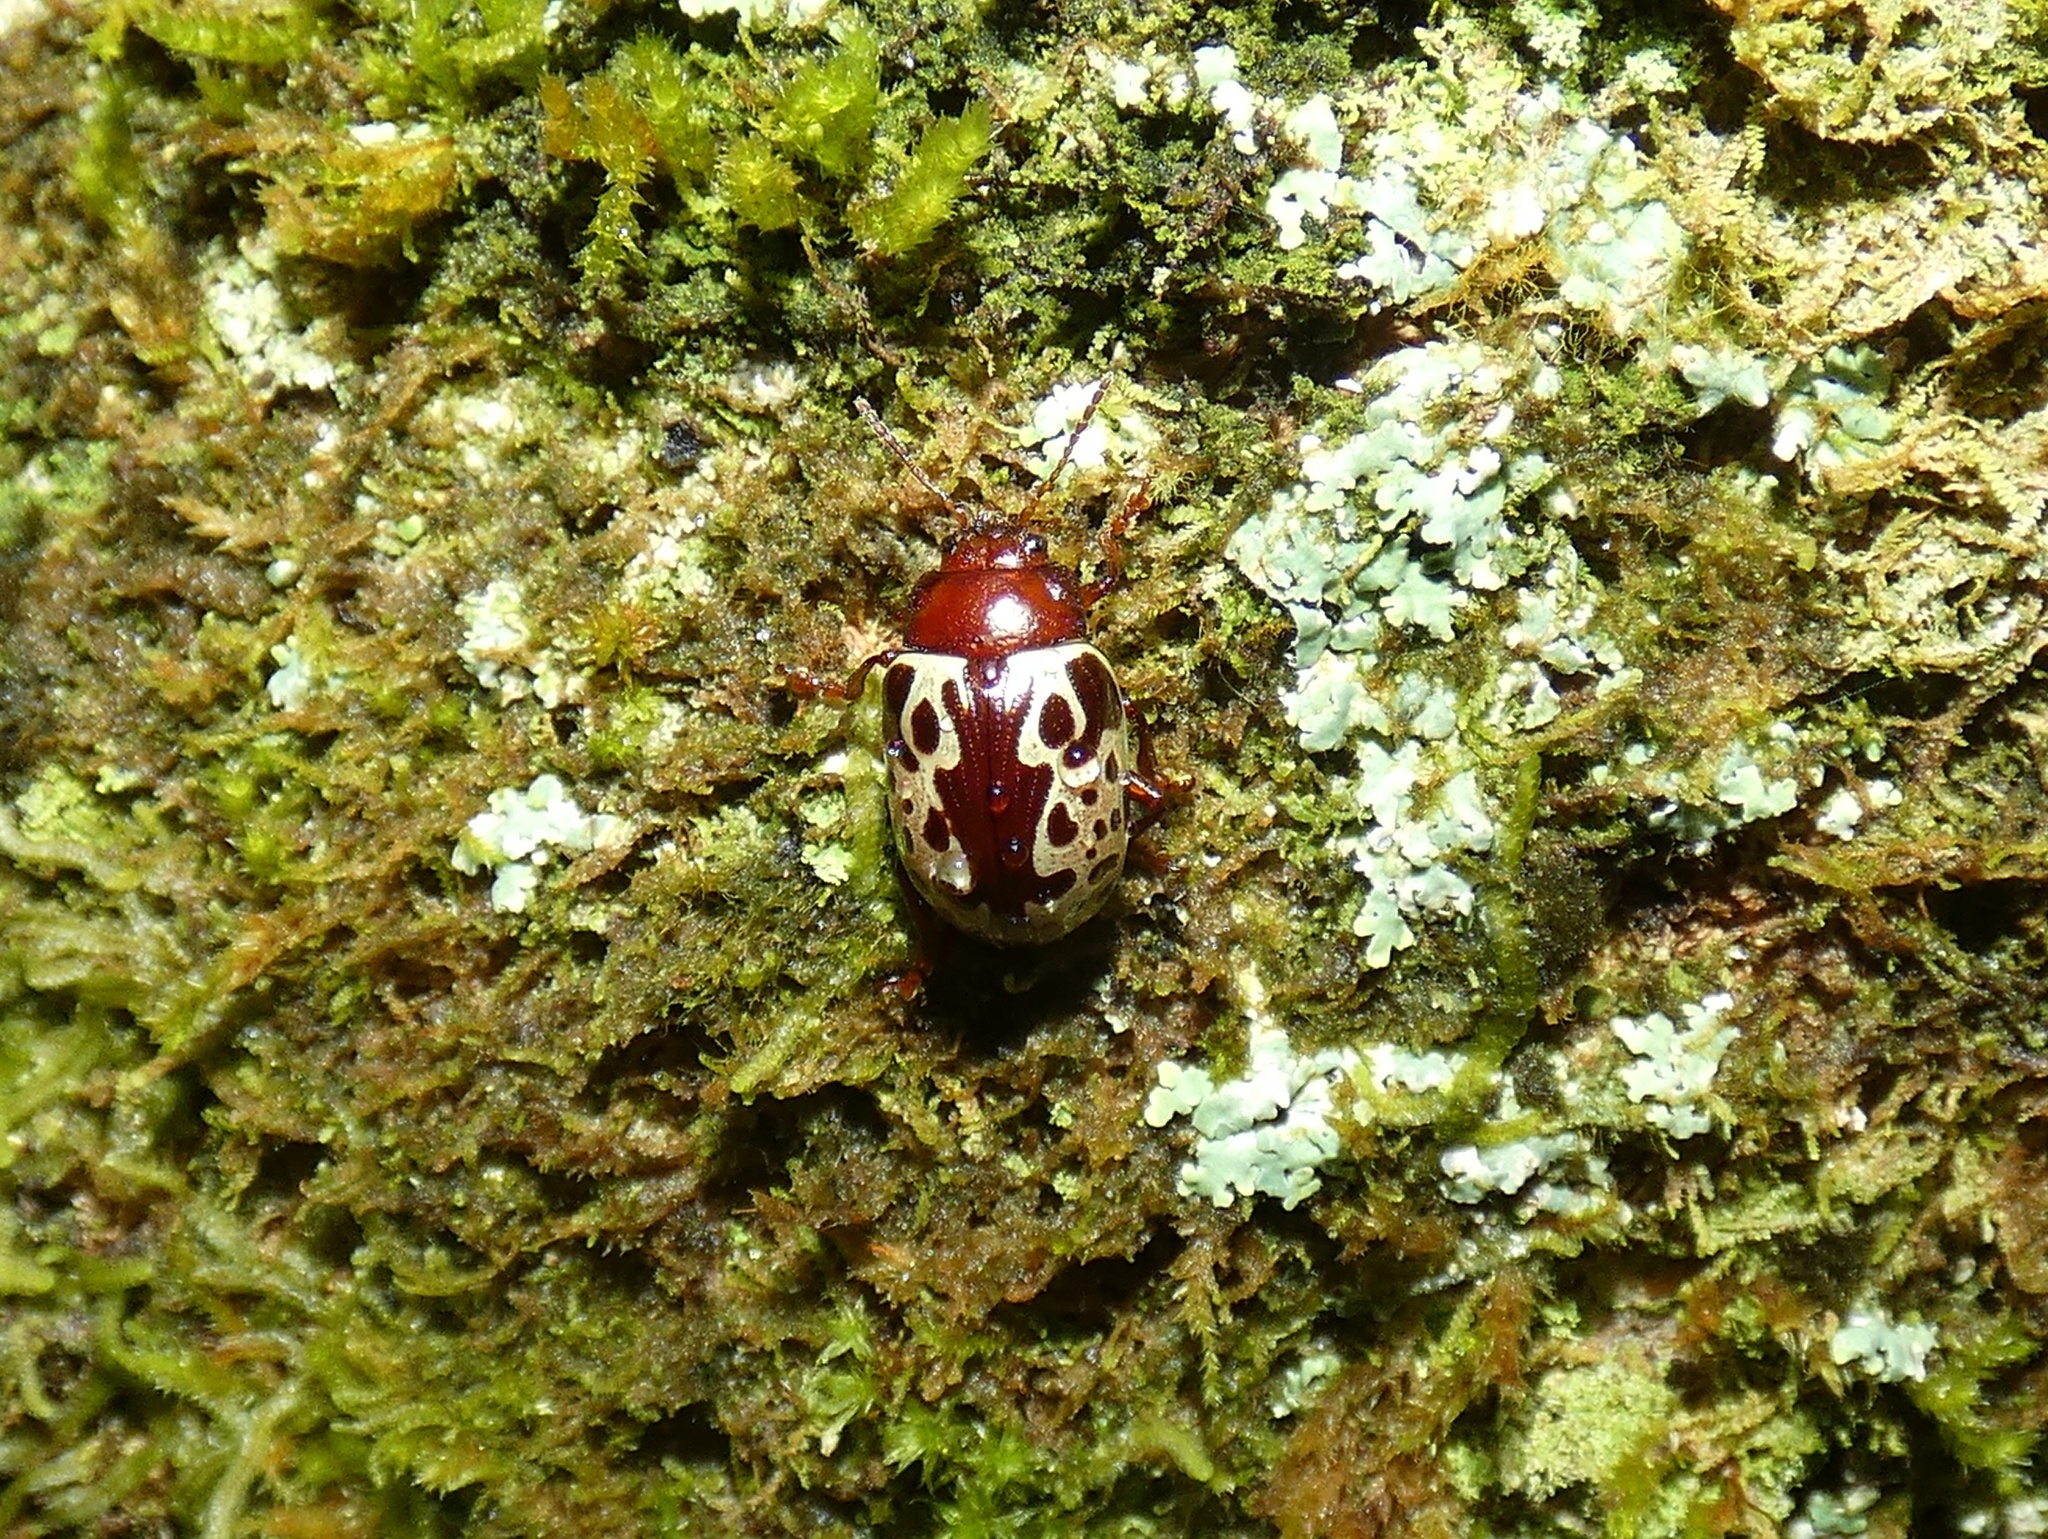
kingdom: Animalia
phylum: Arthropoda
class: Insecta
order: Coleoptera
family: Chrysomelidae
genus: Calligrapha
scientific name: Calligrapha argus
